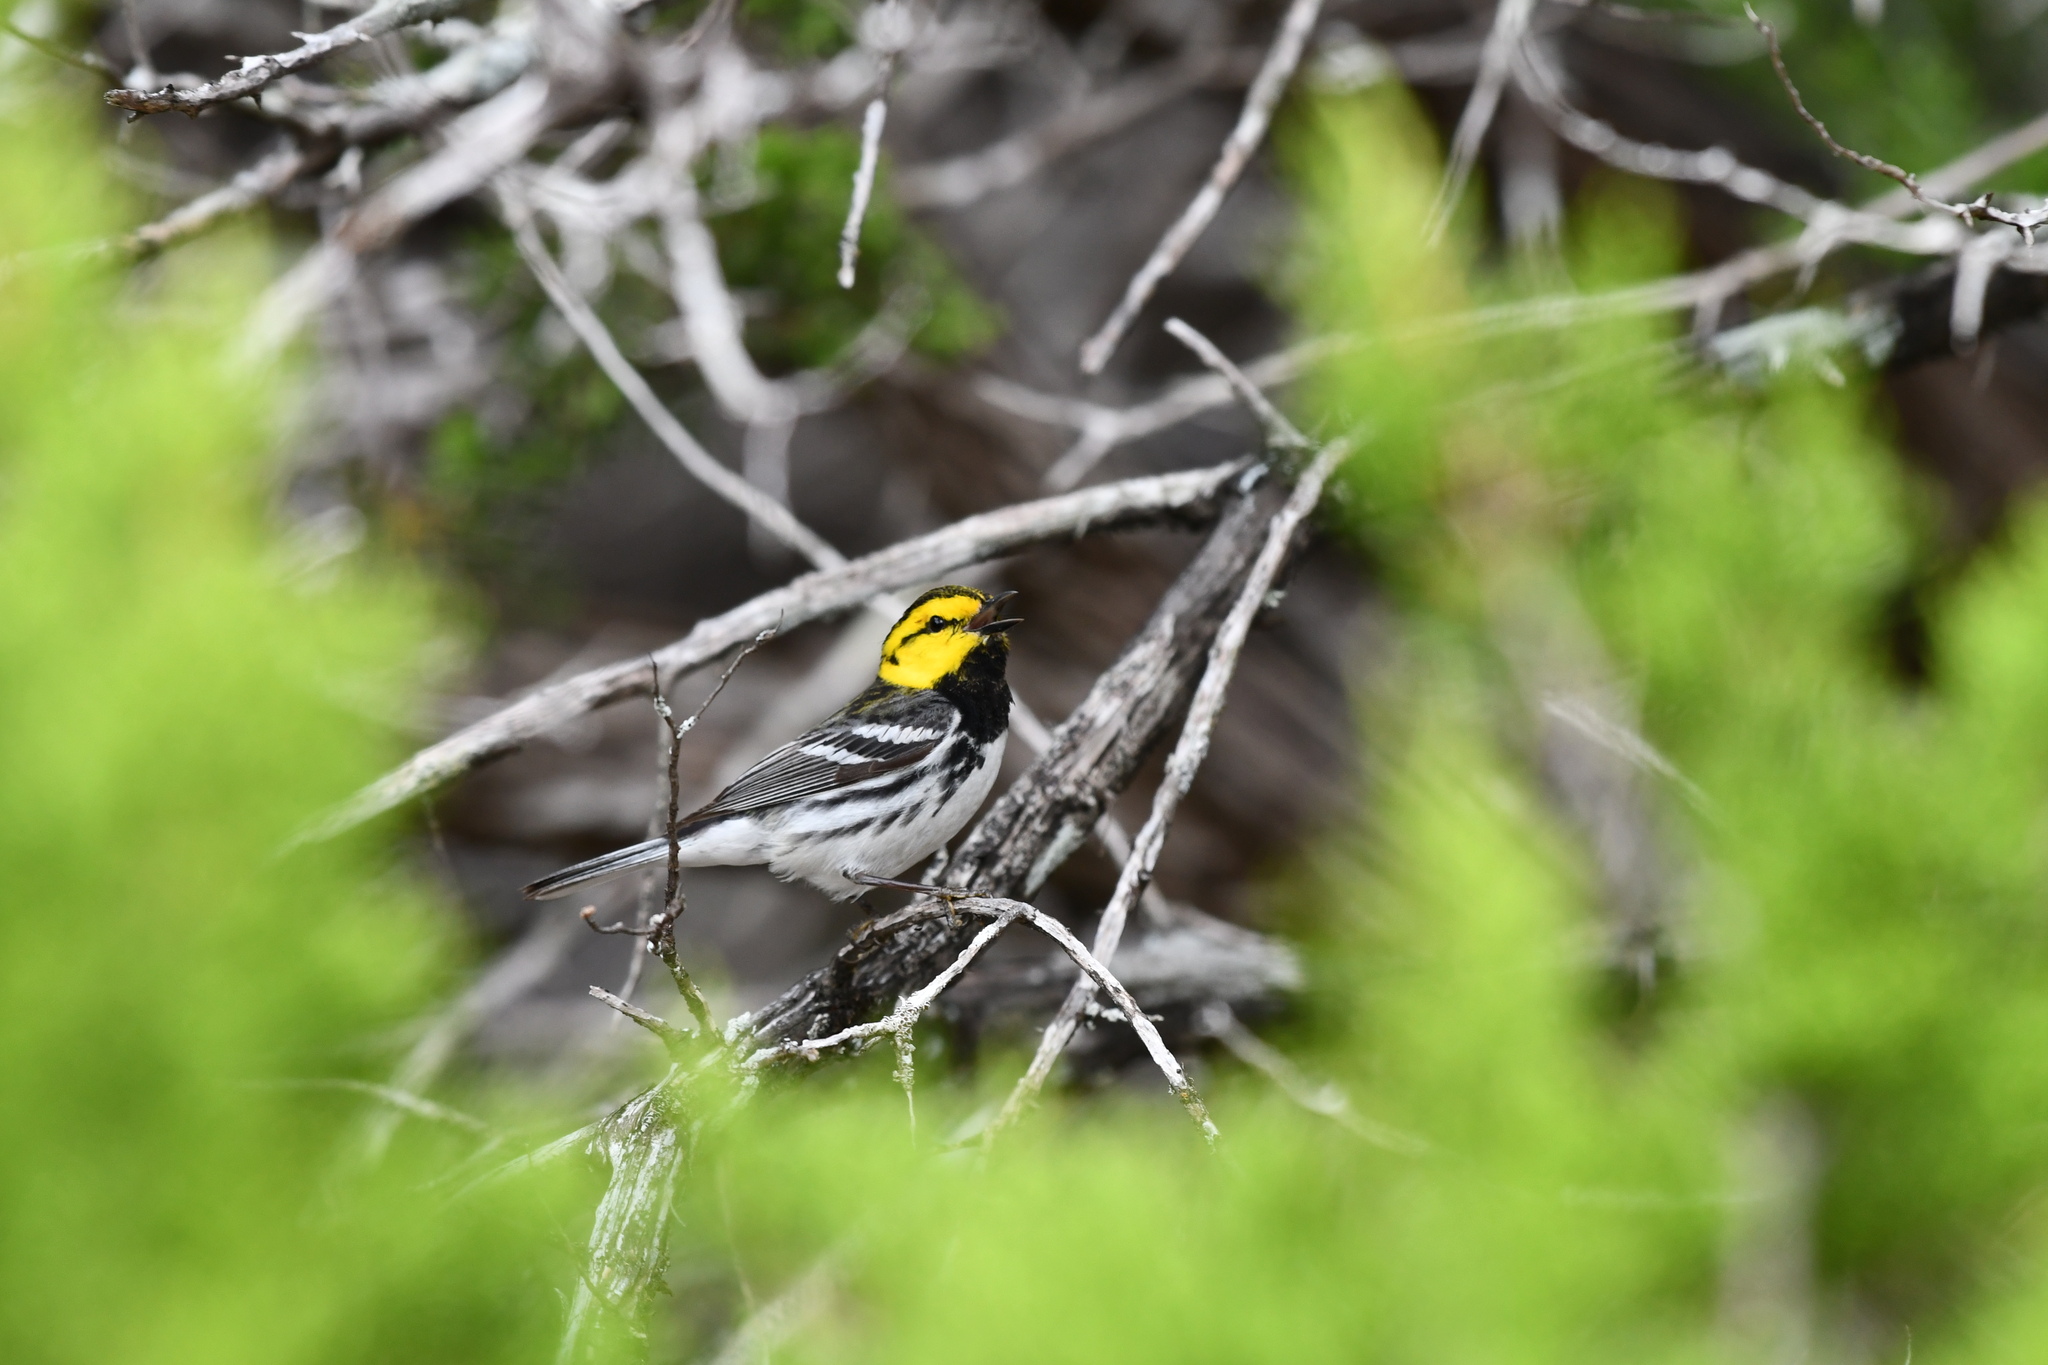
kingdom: Animalia
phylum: Chordata
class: Aves
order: Passeriformes
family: Parulidae
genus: Setophaga
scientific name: Setophaga chrysoparia
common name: Golden-cheeked warbler
